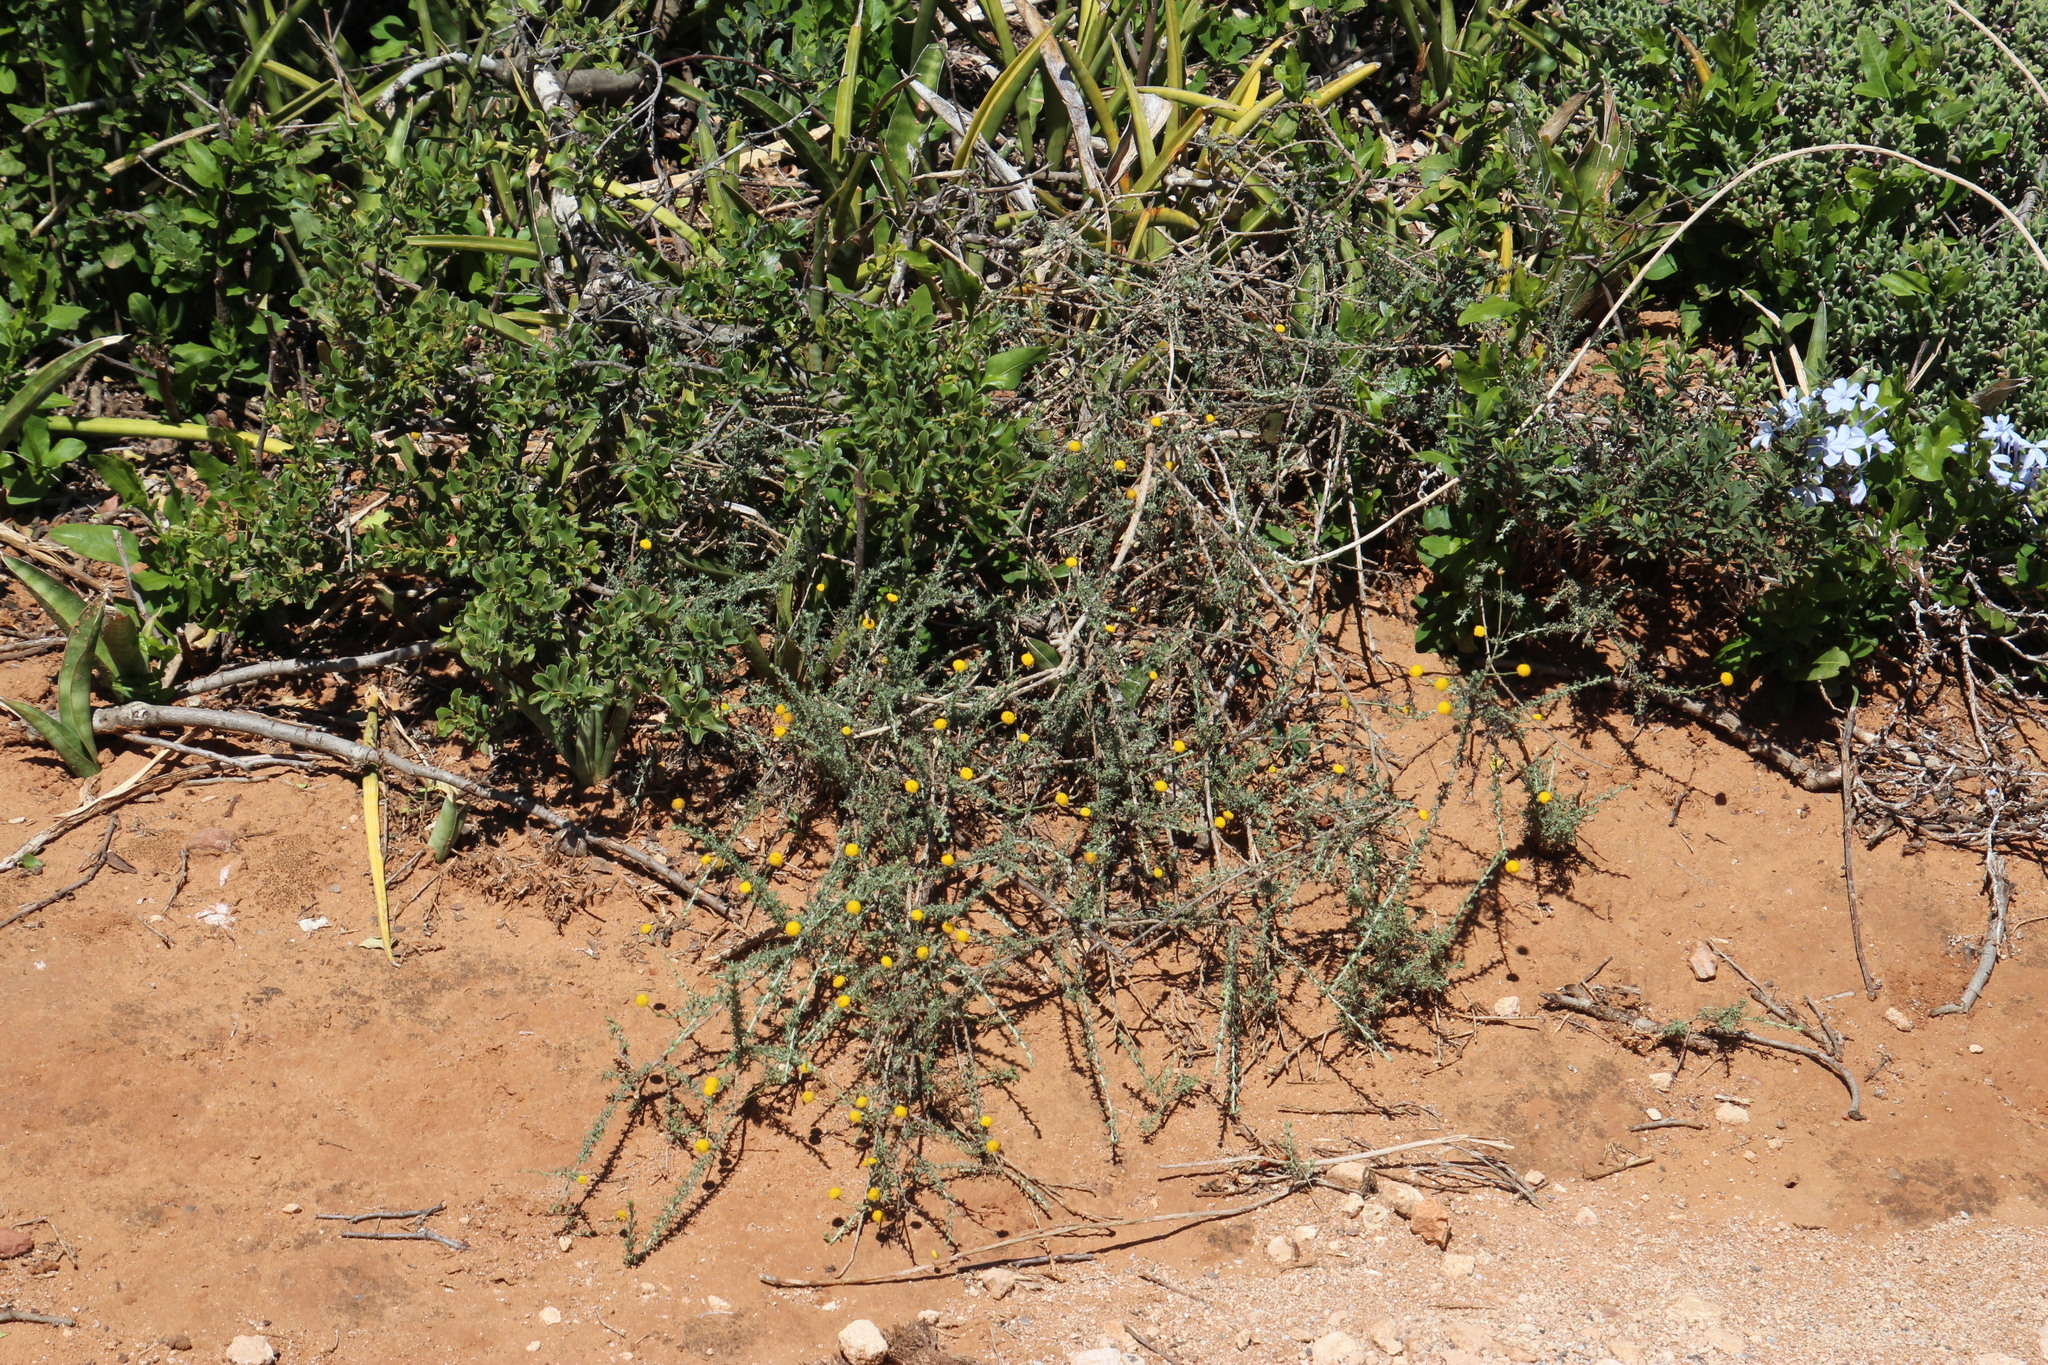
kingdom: Plantae
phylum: Tracheophyta
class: Magnoliopsida
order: Asterales
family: Asteraceae
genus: Pentzia
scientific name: Pentzia incana
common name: African sheepbush
